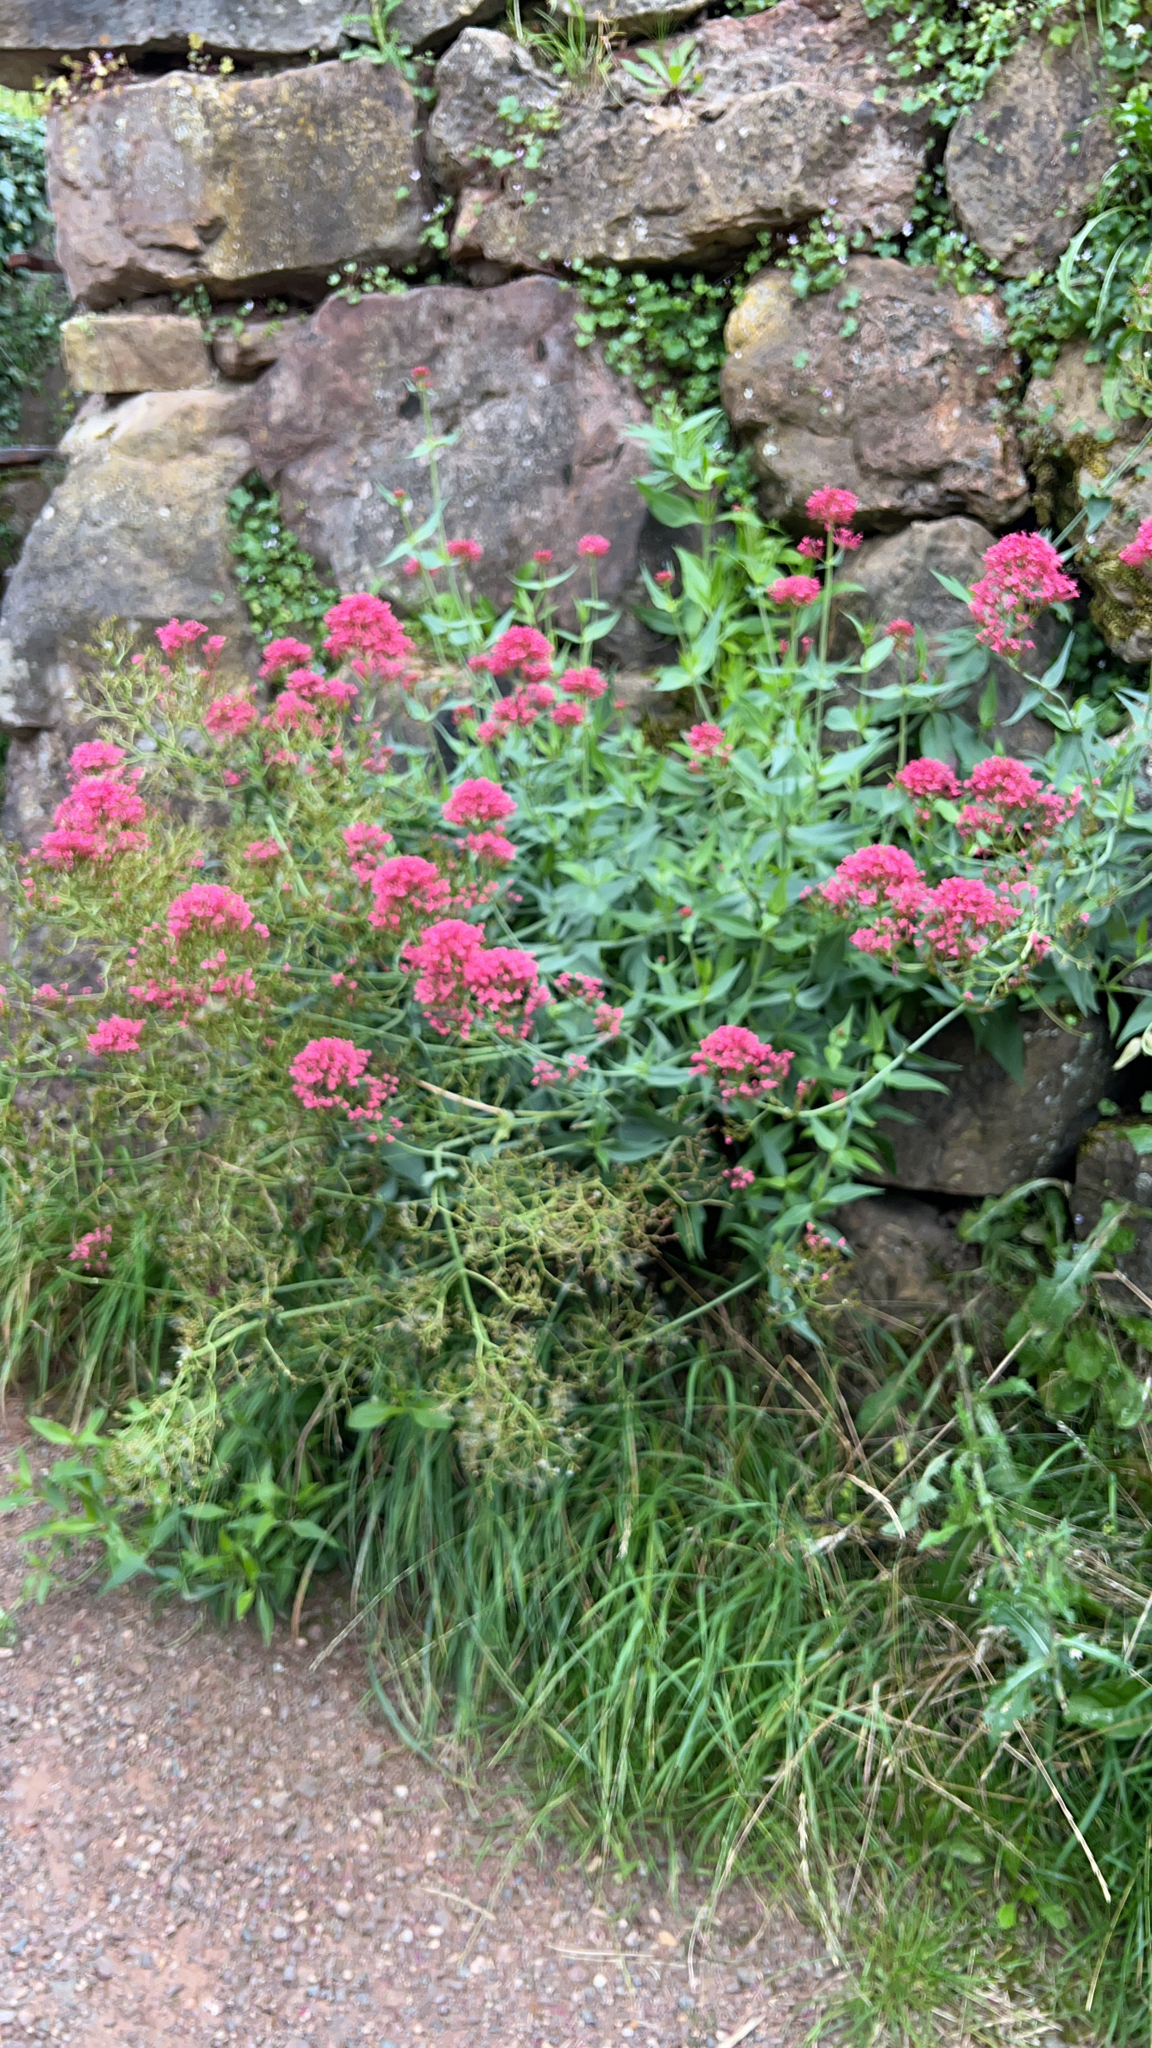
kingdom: Plantae
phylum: Tracheophyta
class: Magnoliopsida
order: Dipsacales
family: Caprifoliaceae
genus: Centranthus
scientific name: Centranthus ruber
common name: Red valerian
